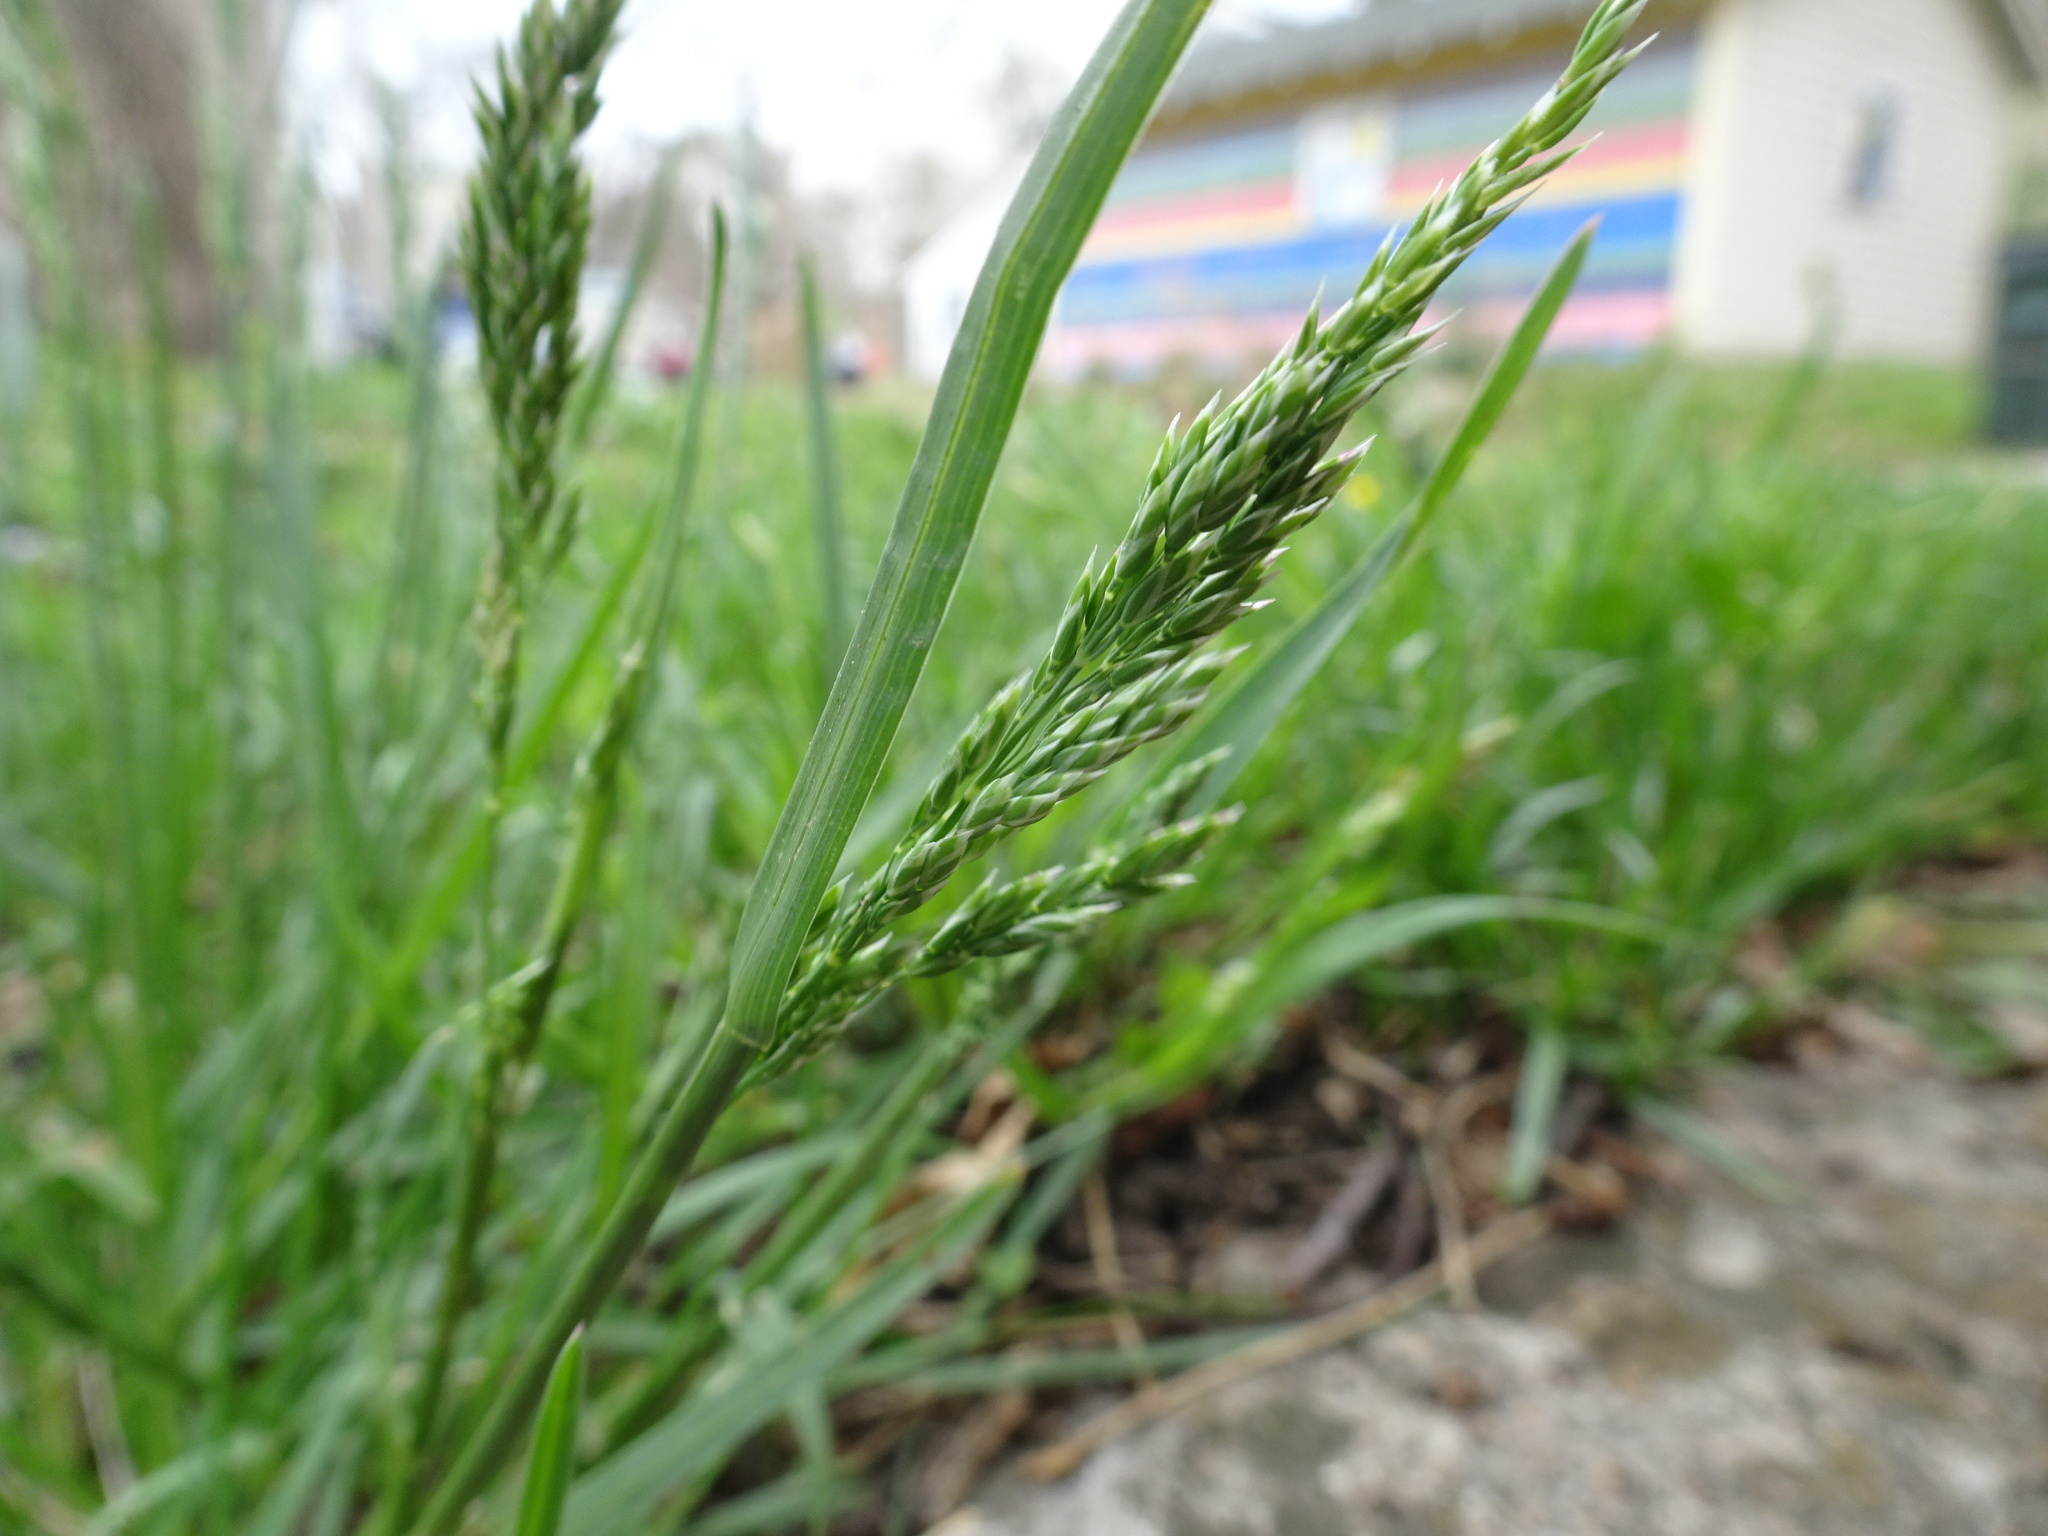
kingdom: Plantae
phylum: Tracheophyta
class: Liliopsida
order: Poales
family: Poaceae
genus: Poa
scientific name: Poa pratensis
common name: Kentucky bluegrass
